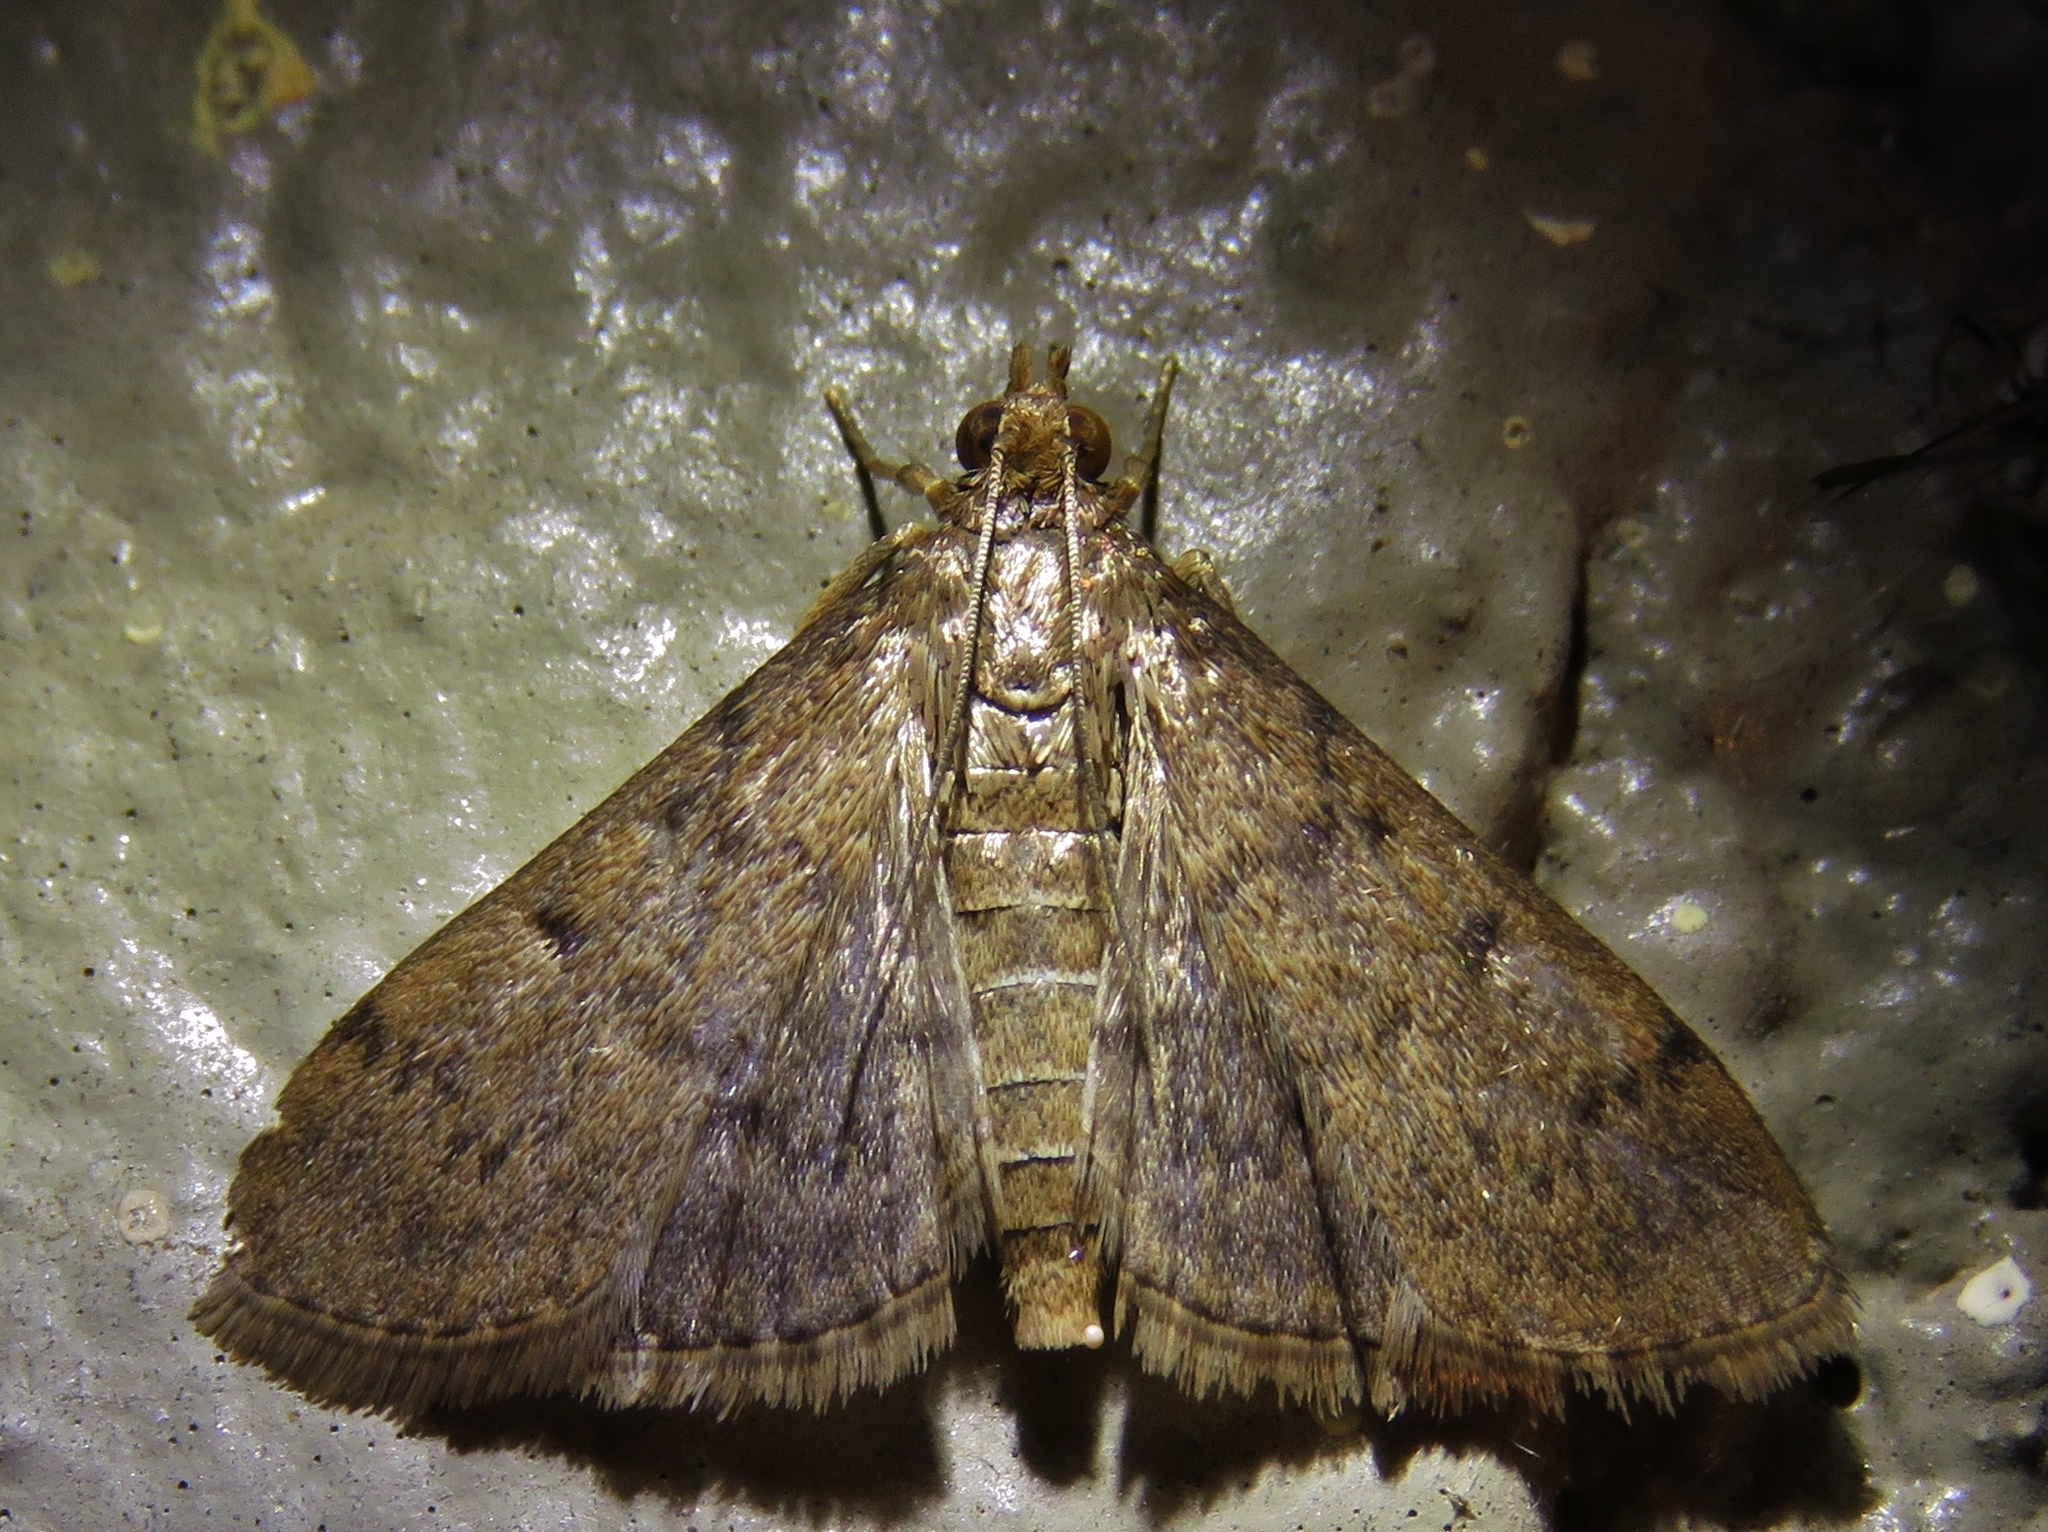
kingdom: Animalia
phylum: Arthropoda
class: Insecta
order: Lepidoptera
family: Crambidae
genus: Herpetogramma
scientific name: Herpetogramma phaeopteralis
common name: Dusky herpetogramma moth
